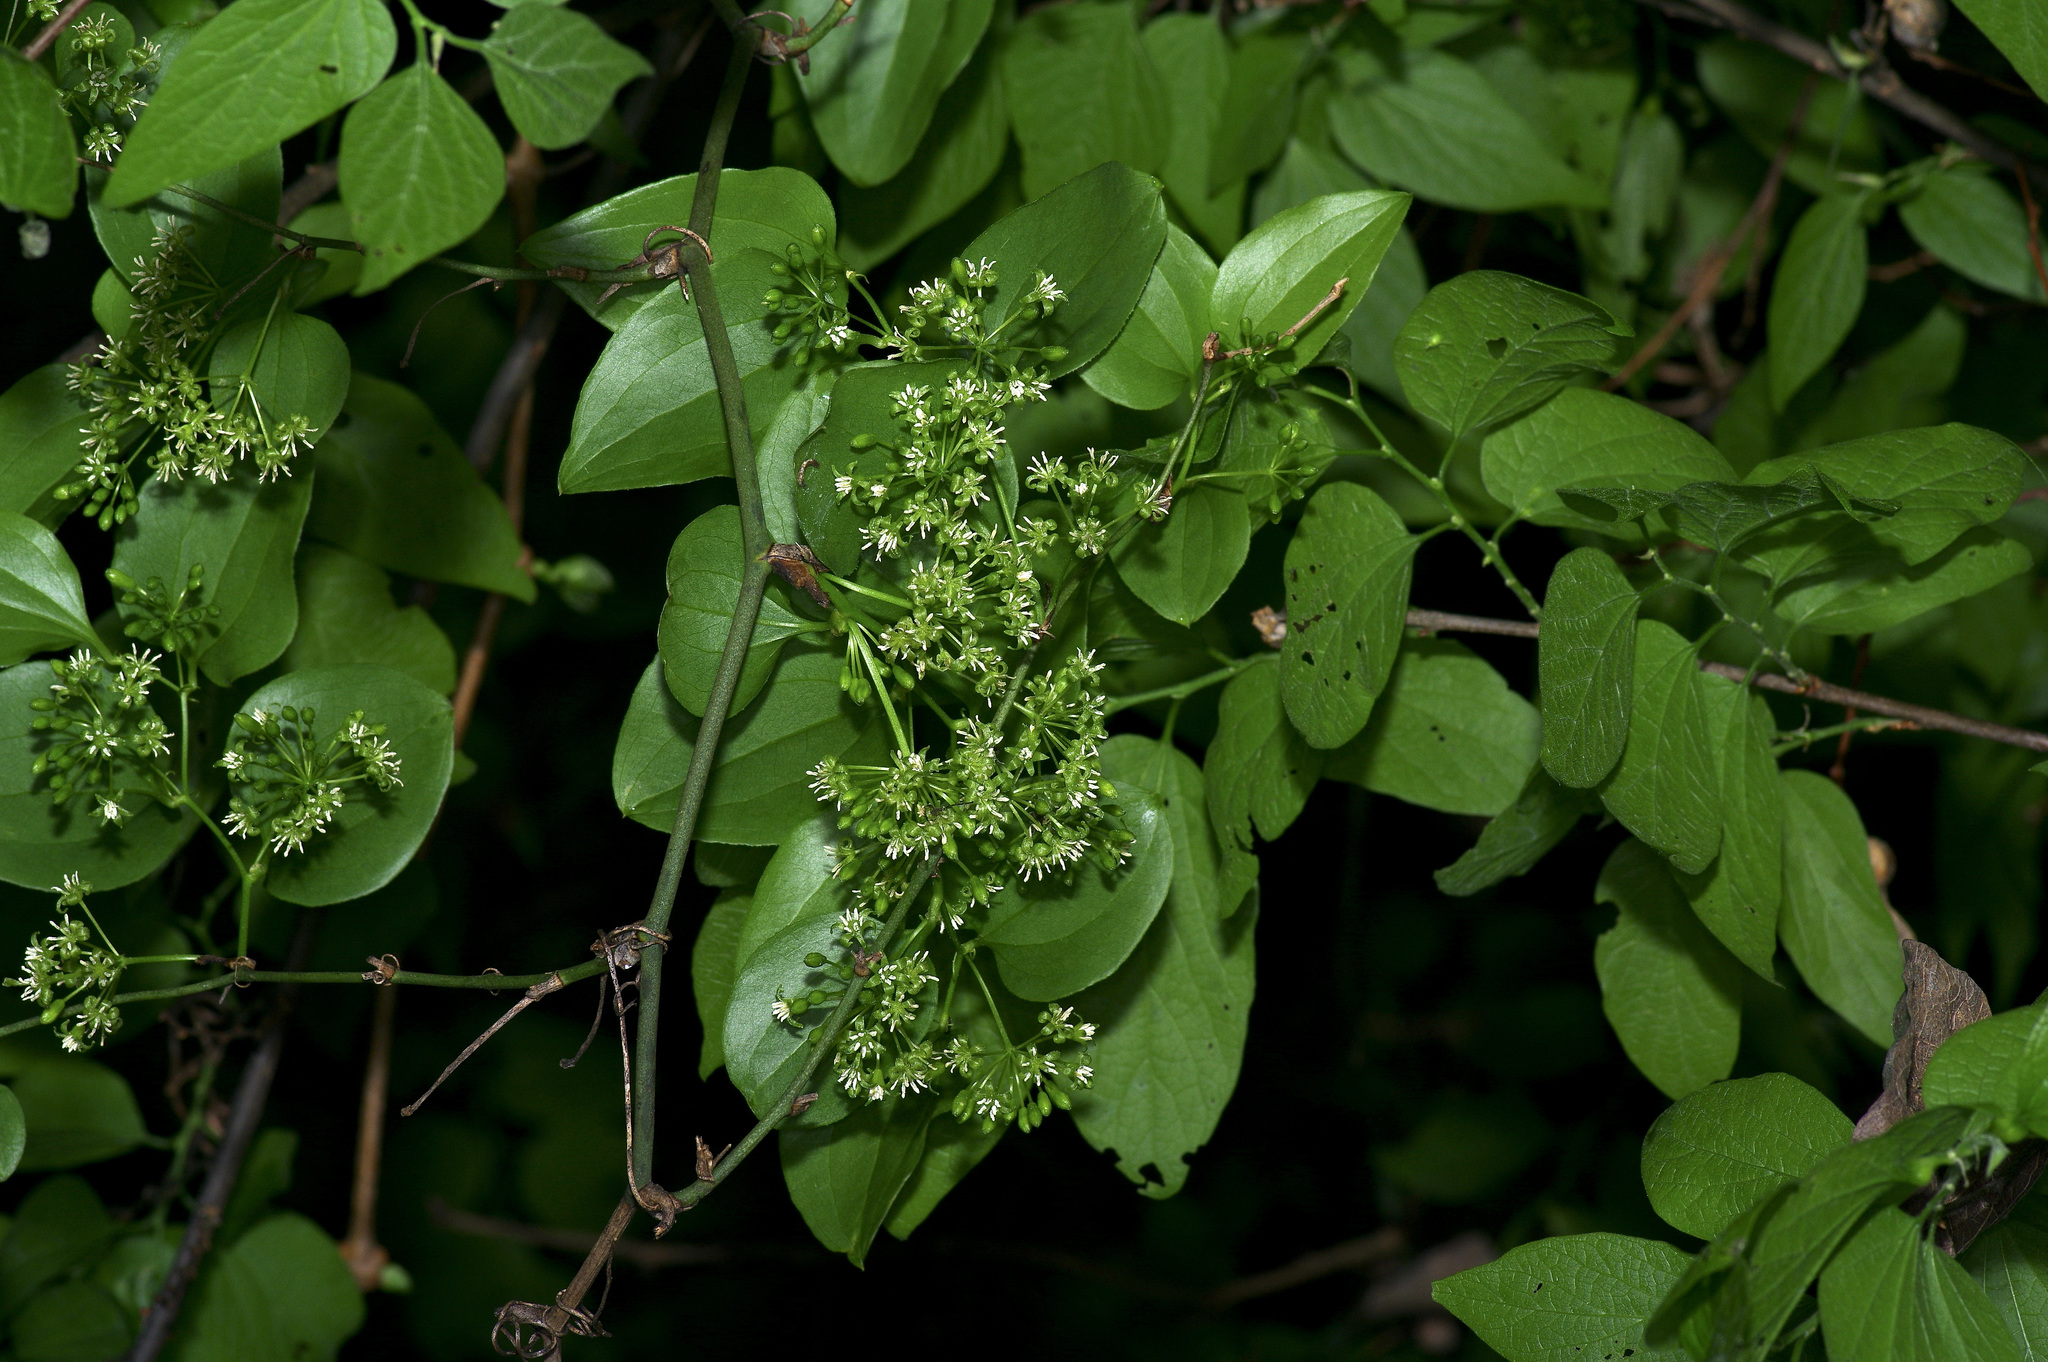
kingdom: Plantae
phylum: Tracheophyta
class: Magnoliopsida
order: Ranunculales
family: Menispermaceae
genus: Cocculus
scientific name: Cocculus carolinus
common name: Carolina moonseed
